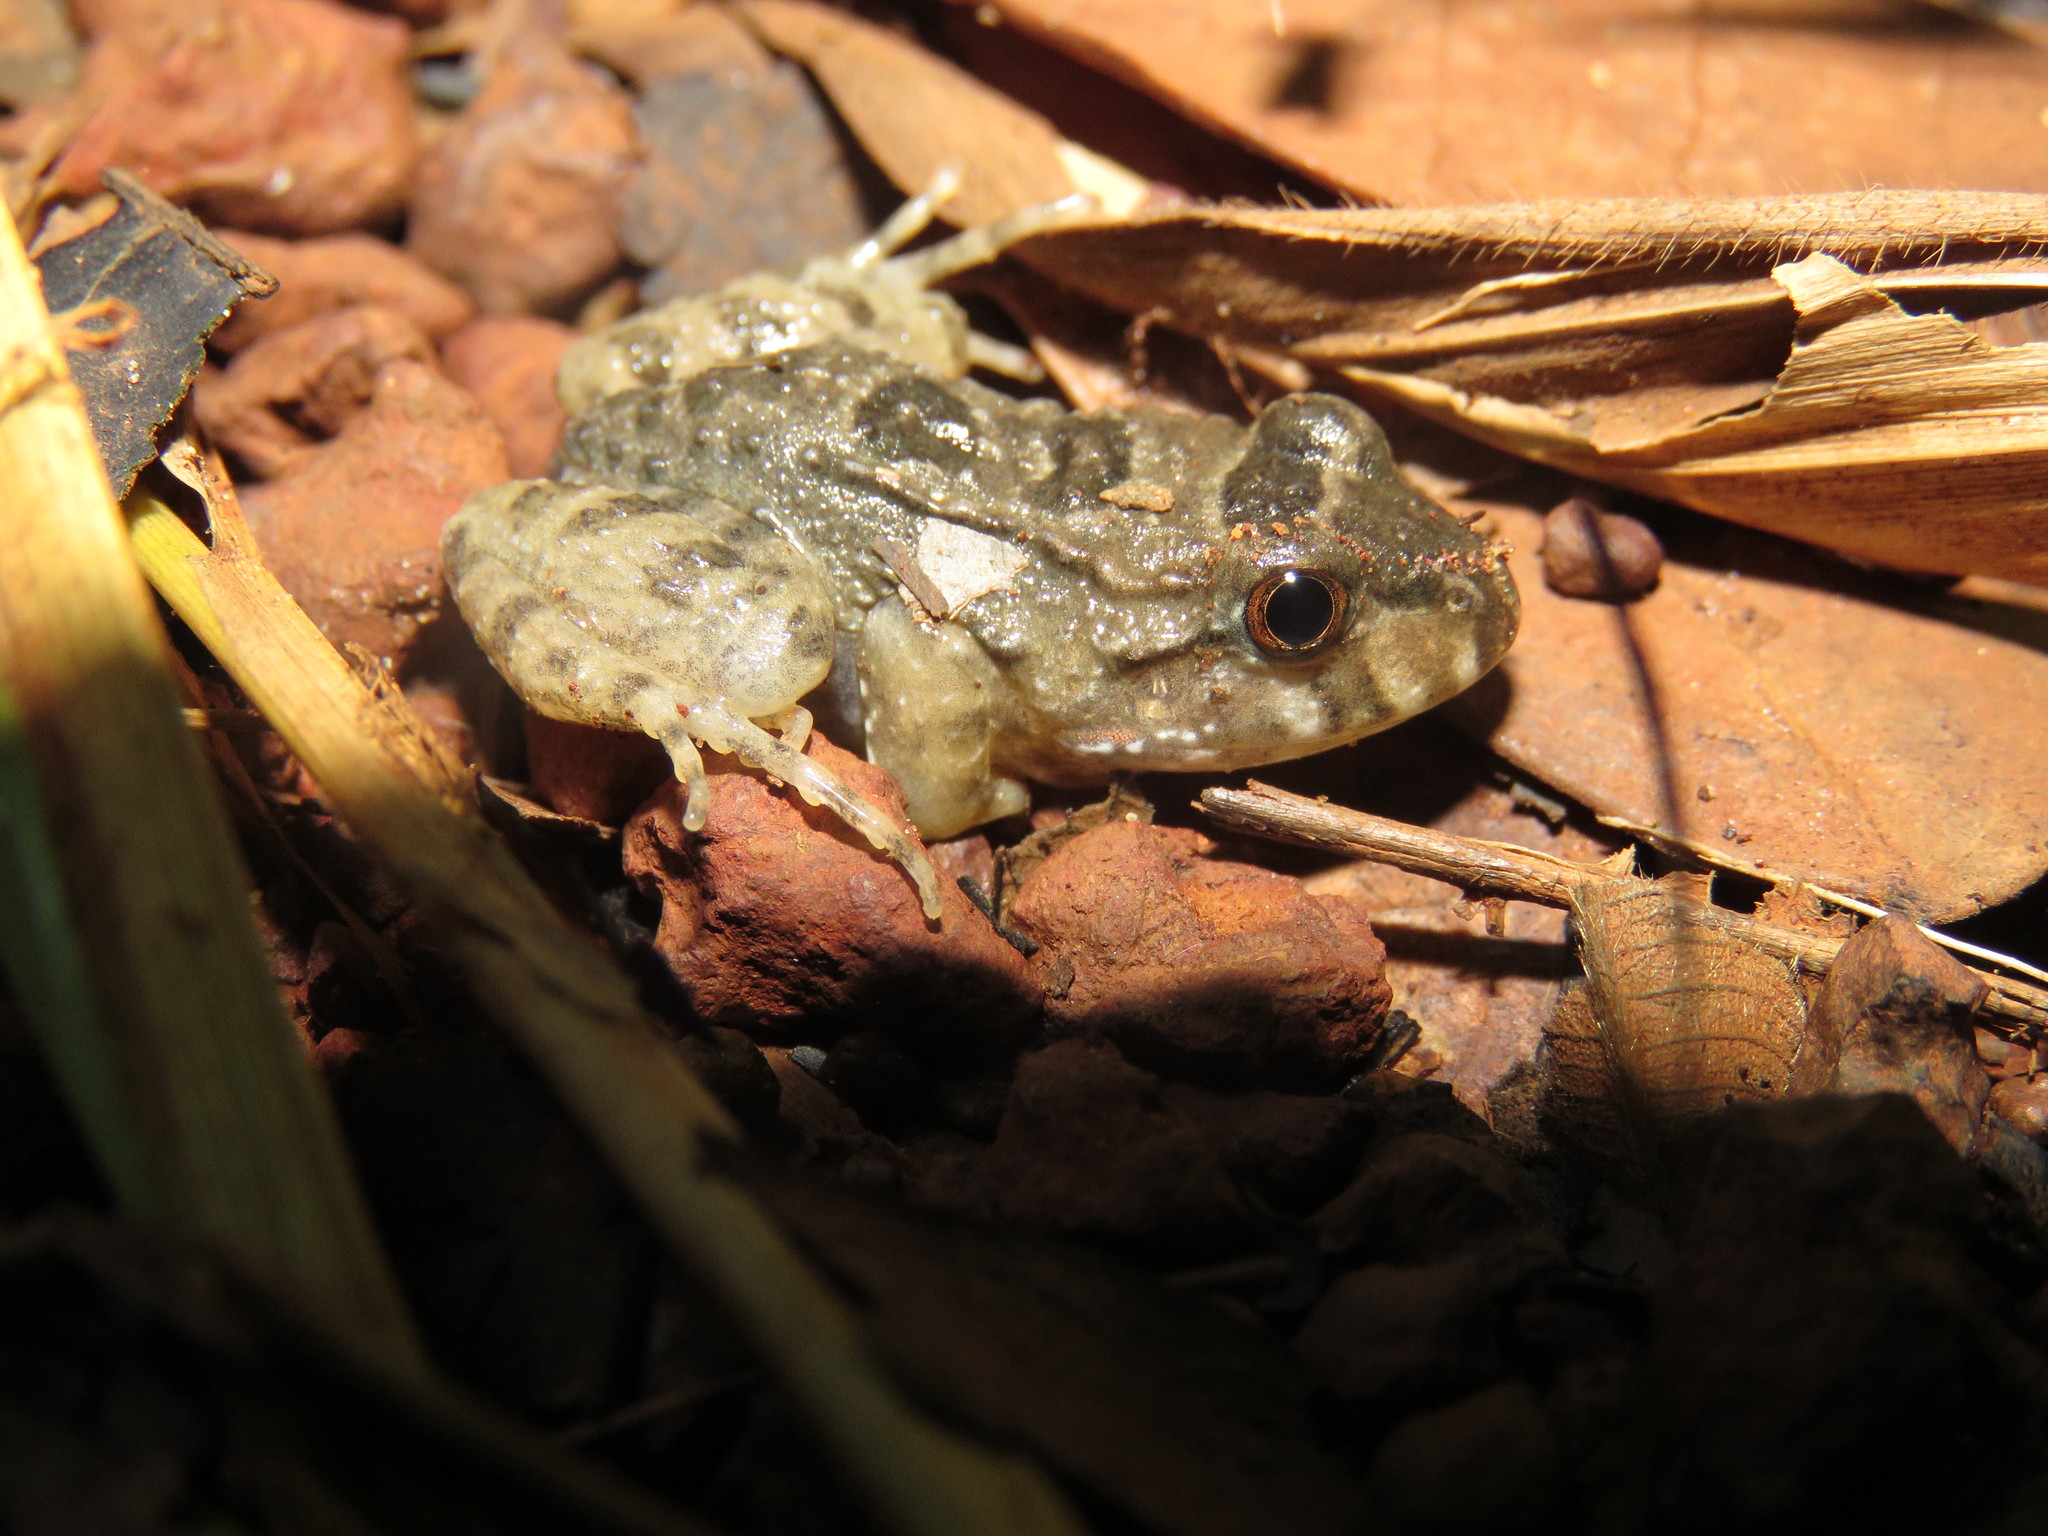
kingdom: Animalia
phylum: Chordata
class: Amphibia
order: Anura
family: Leptodactylidae
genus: Leptodactylus
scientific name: Leptodactylus knudseni
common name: Knudsen's frog
